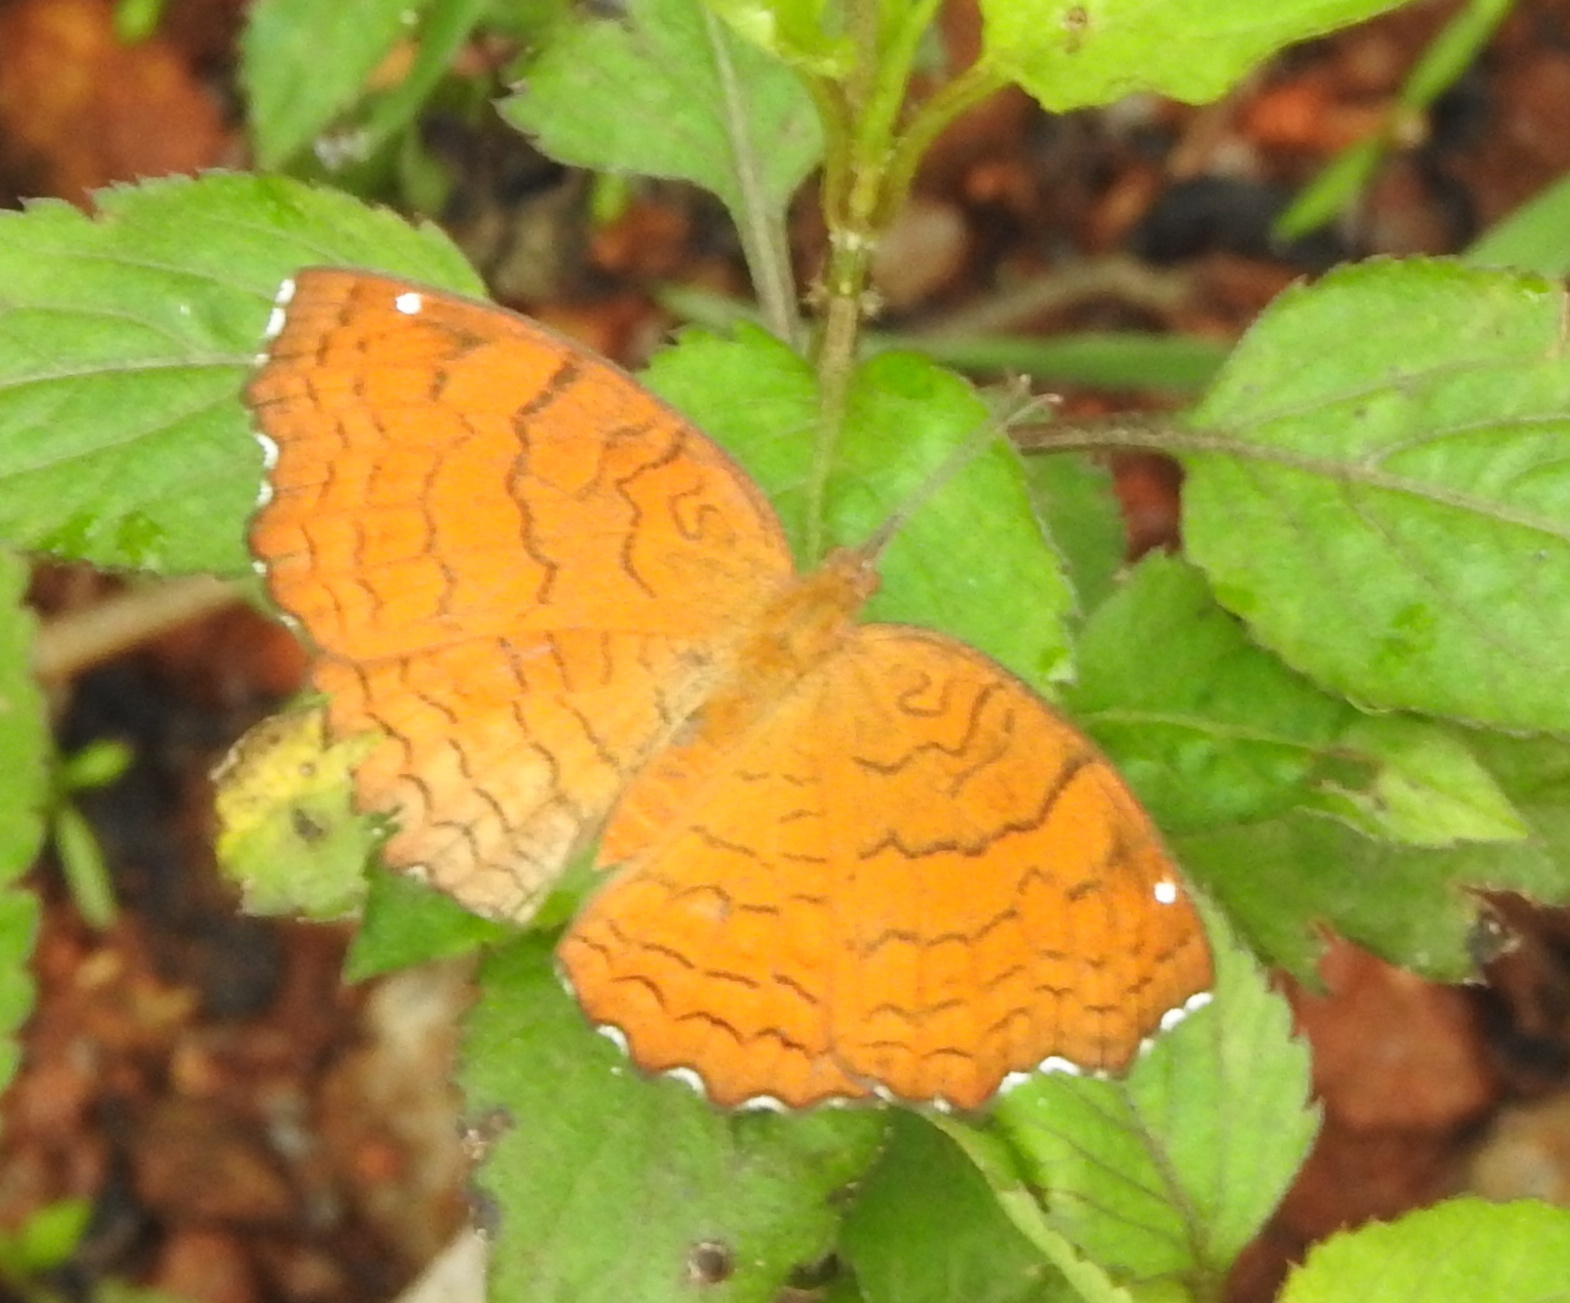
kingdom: Animalia
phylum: Arthropoda
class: Insecta
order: Lepidoptera
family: Nymphalidae
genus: Ariadne
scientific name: Ariadne ariadne
